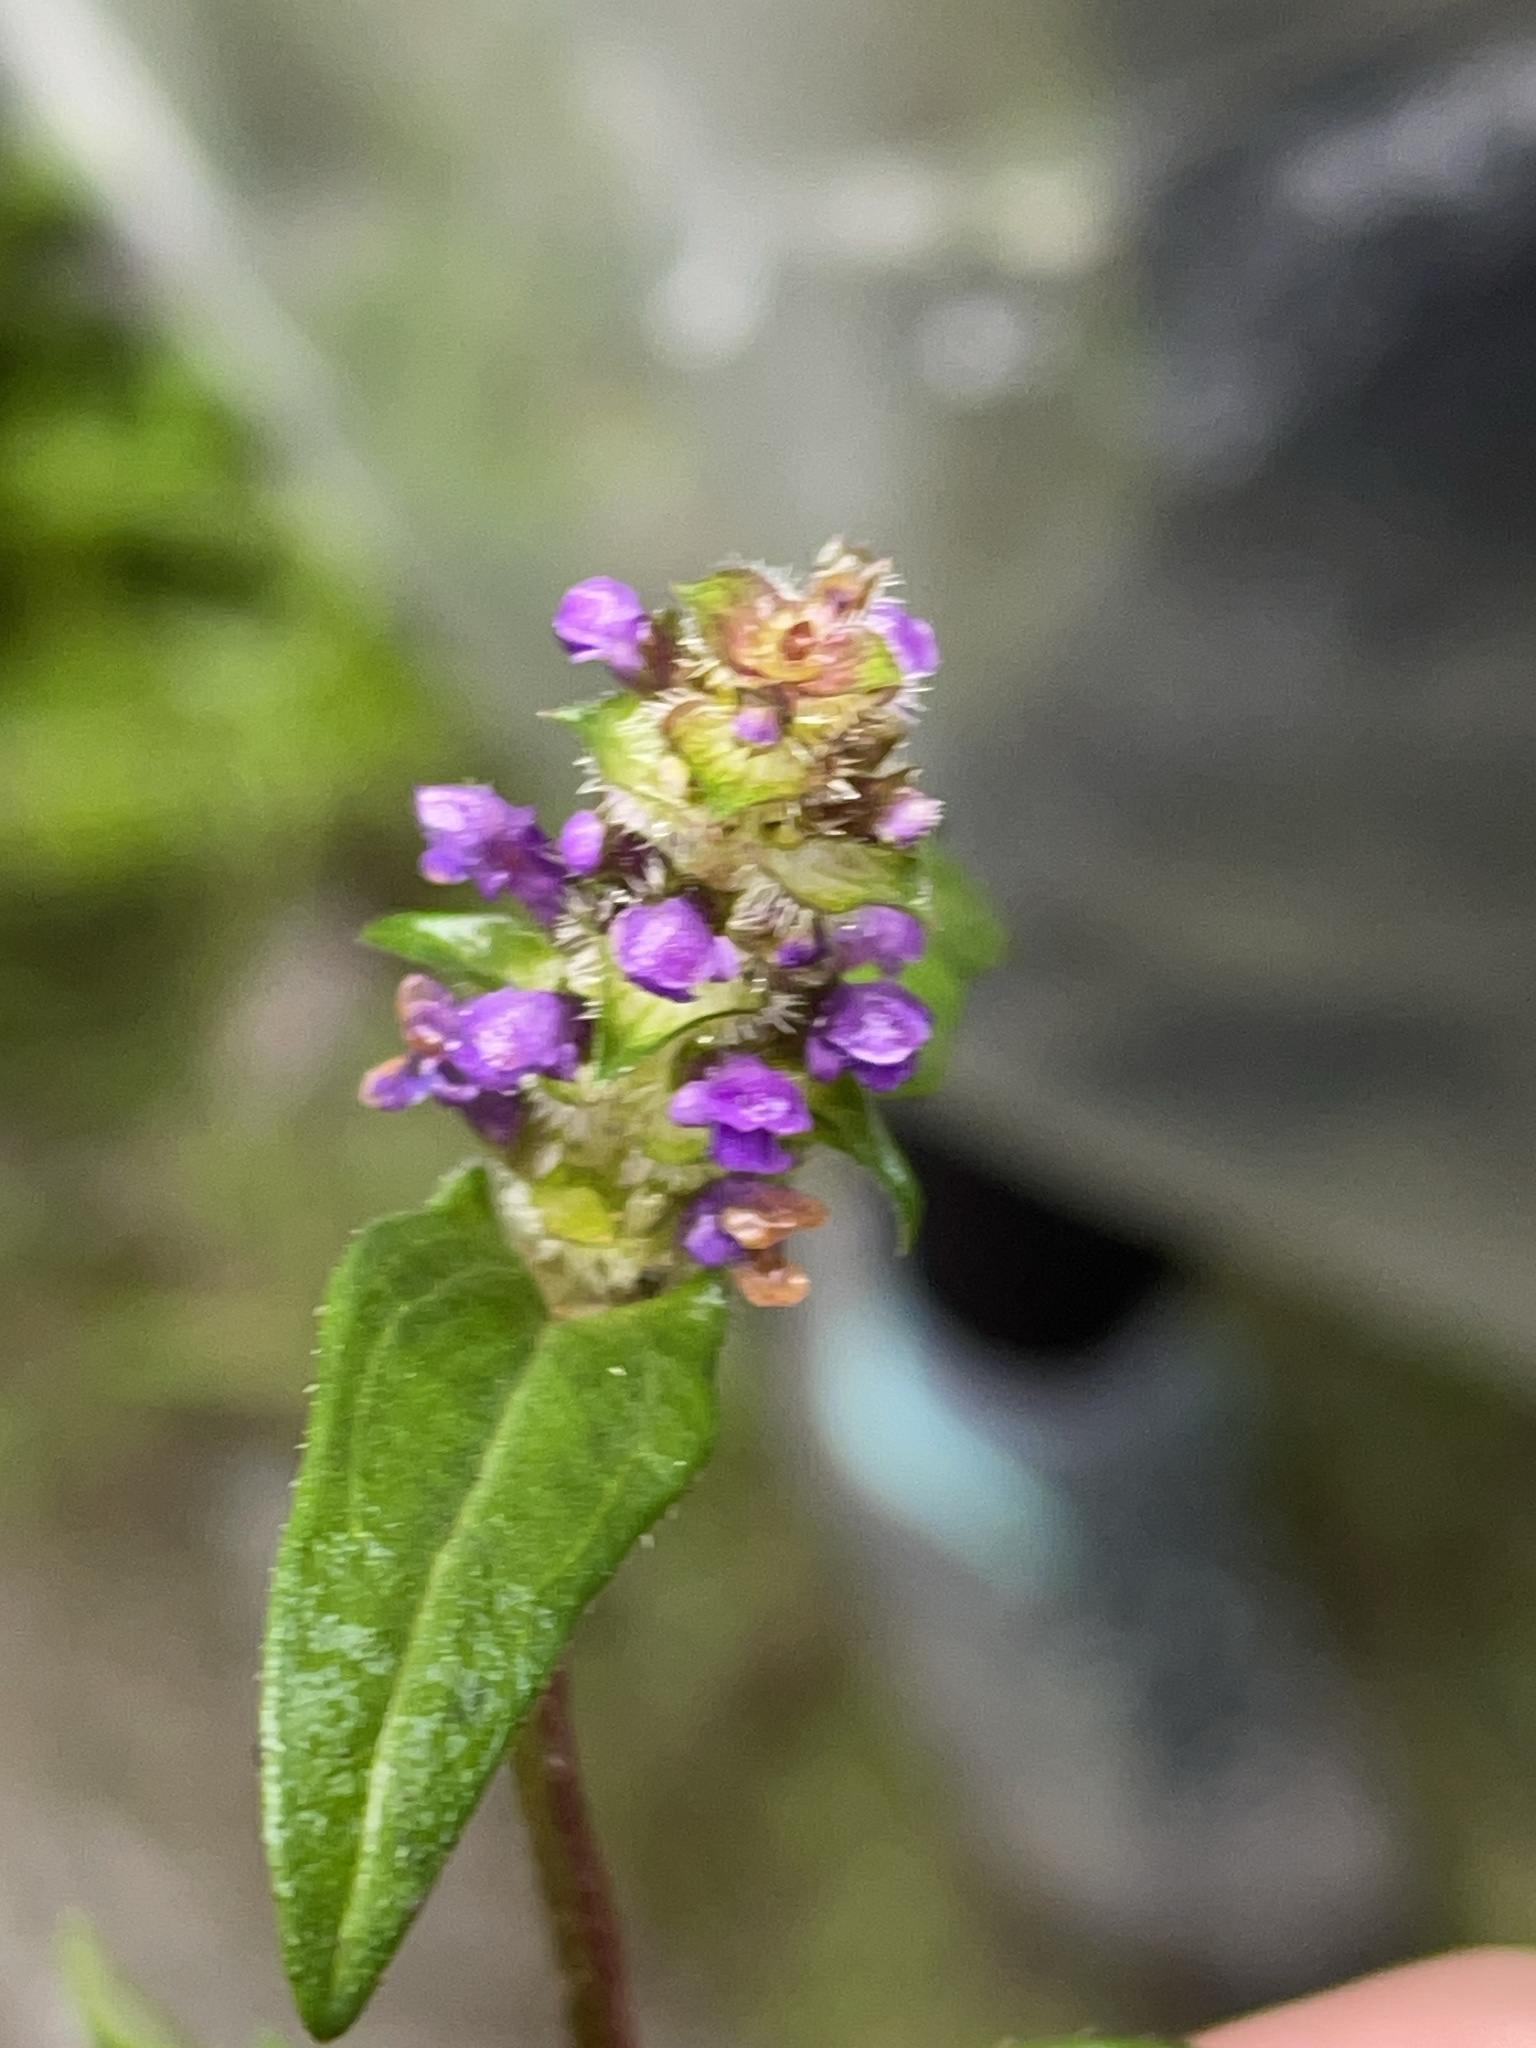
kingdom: Plantae
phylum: Tracheophyta
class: Magnoliopsida
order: Lamiales
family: Lamiaceae
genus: Prunella
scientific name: Prunella vulgaris
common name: Heal-all
